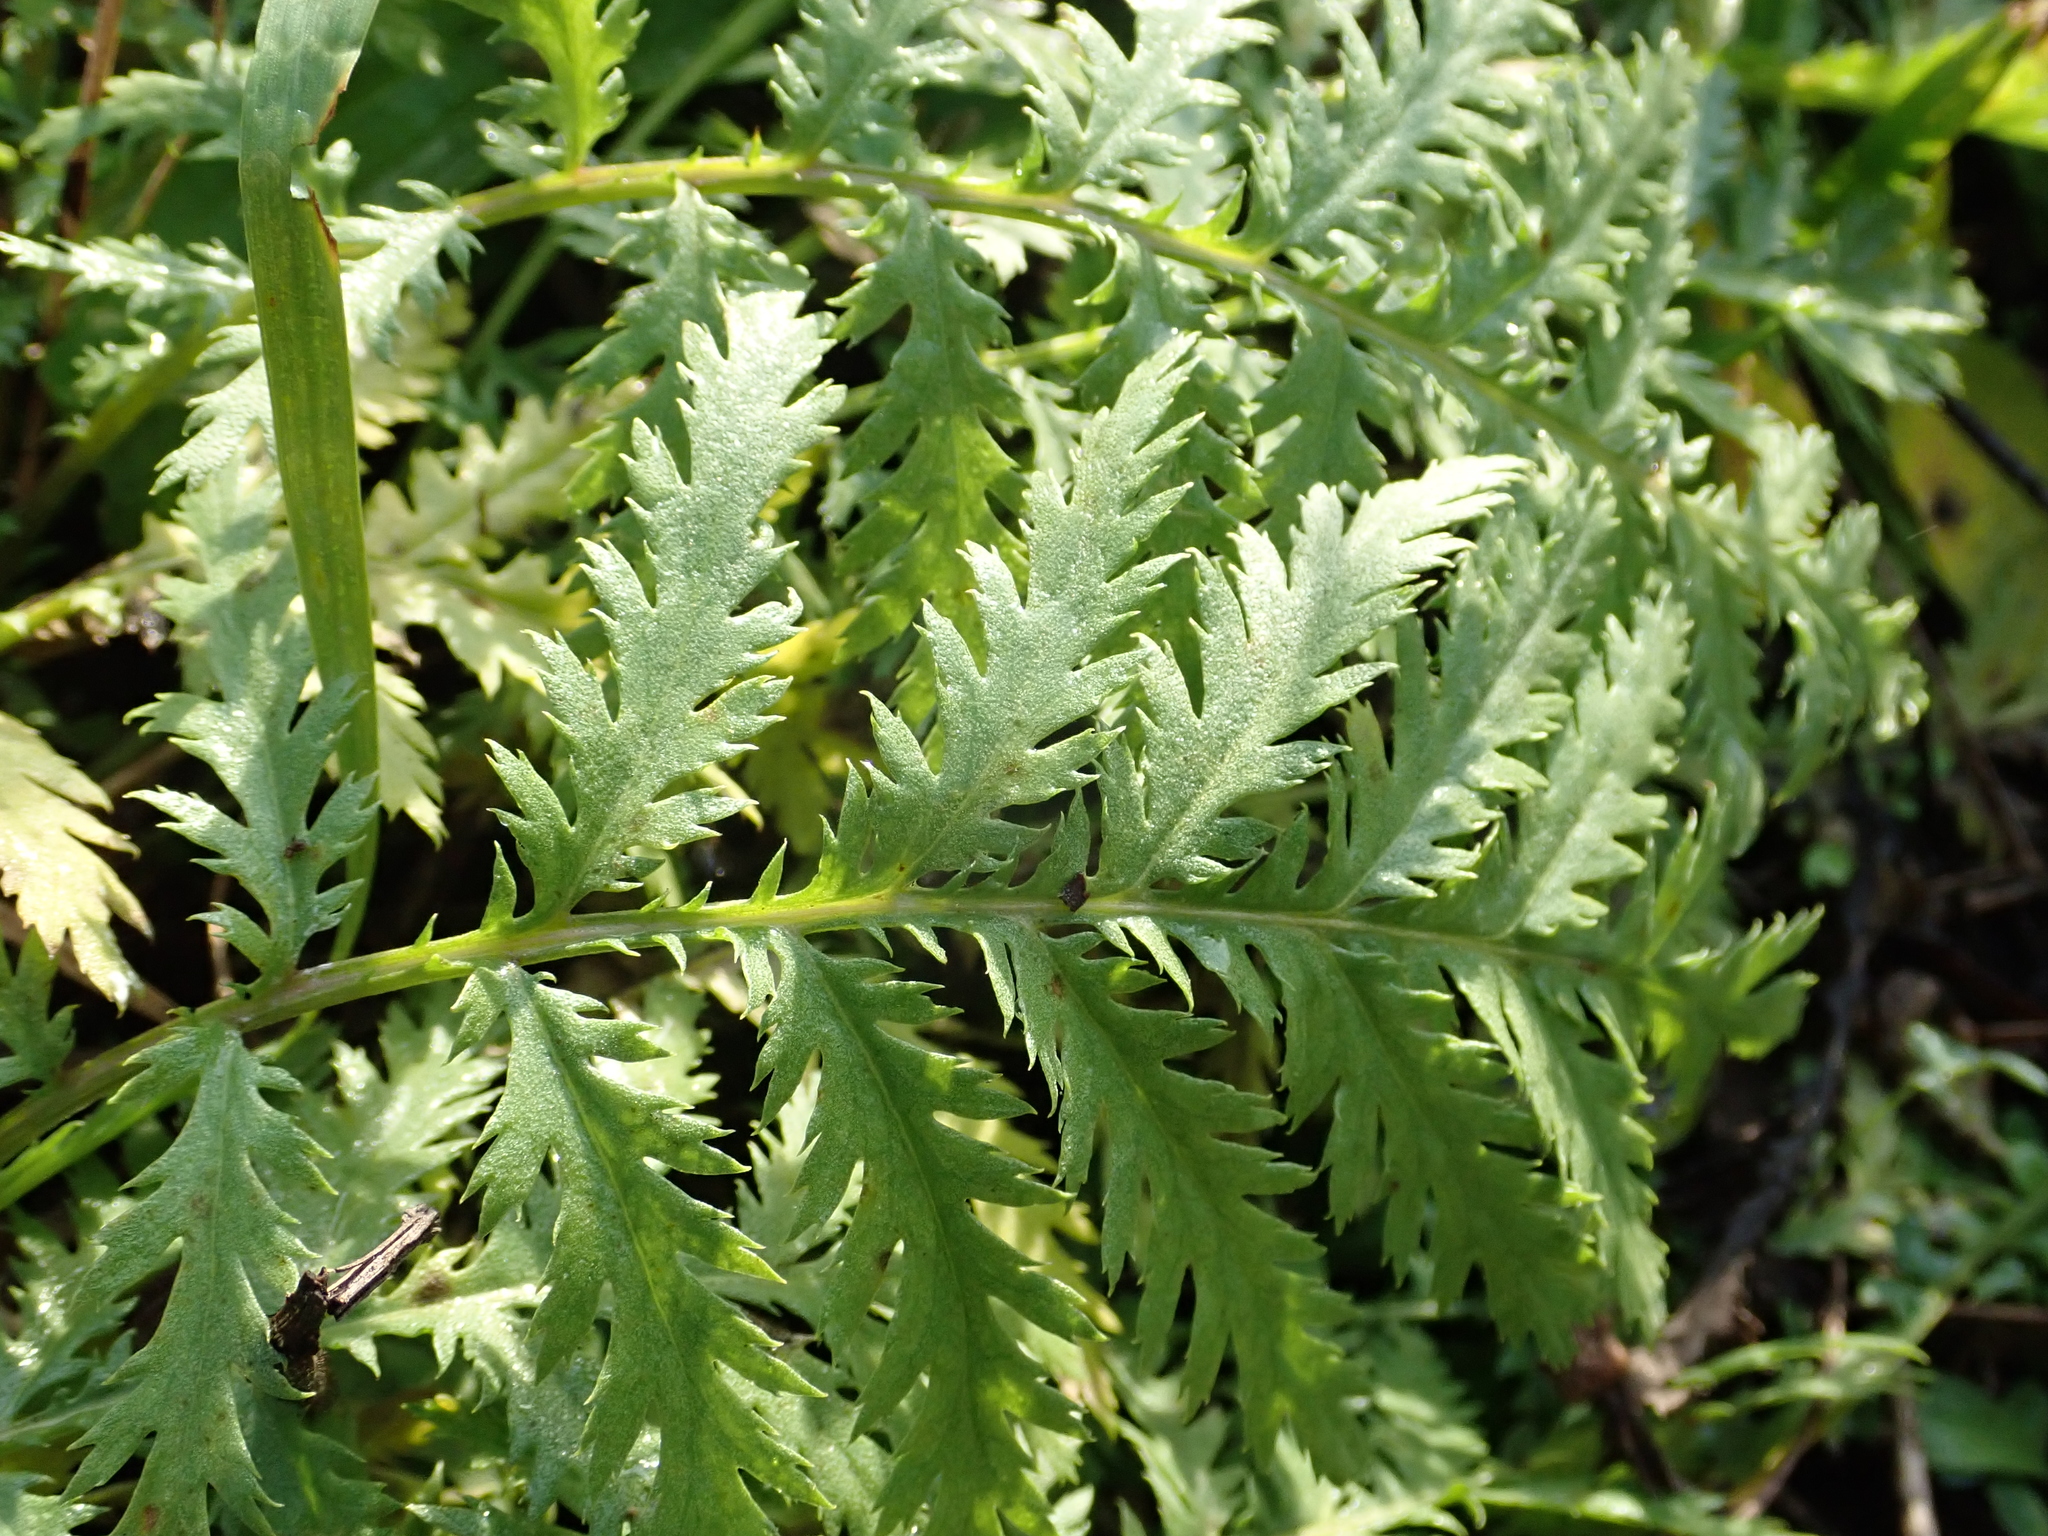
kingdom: Plantae
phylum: Tracheophyta
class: Magnoliopsida
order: Asterales
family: Asteraceae
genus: Tanacetum
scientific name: Tanacetum vulgare
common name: Common tansy
